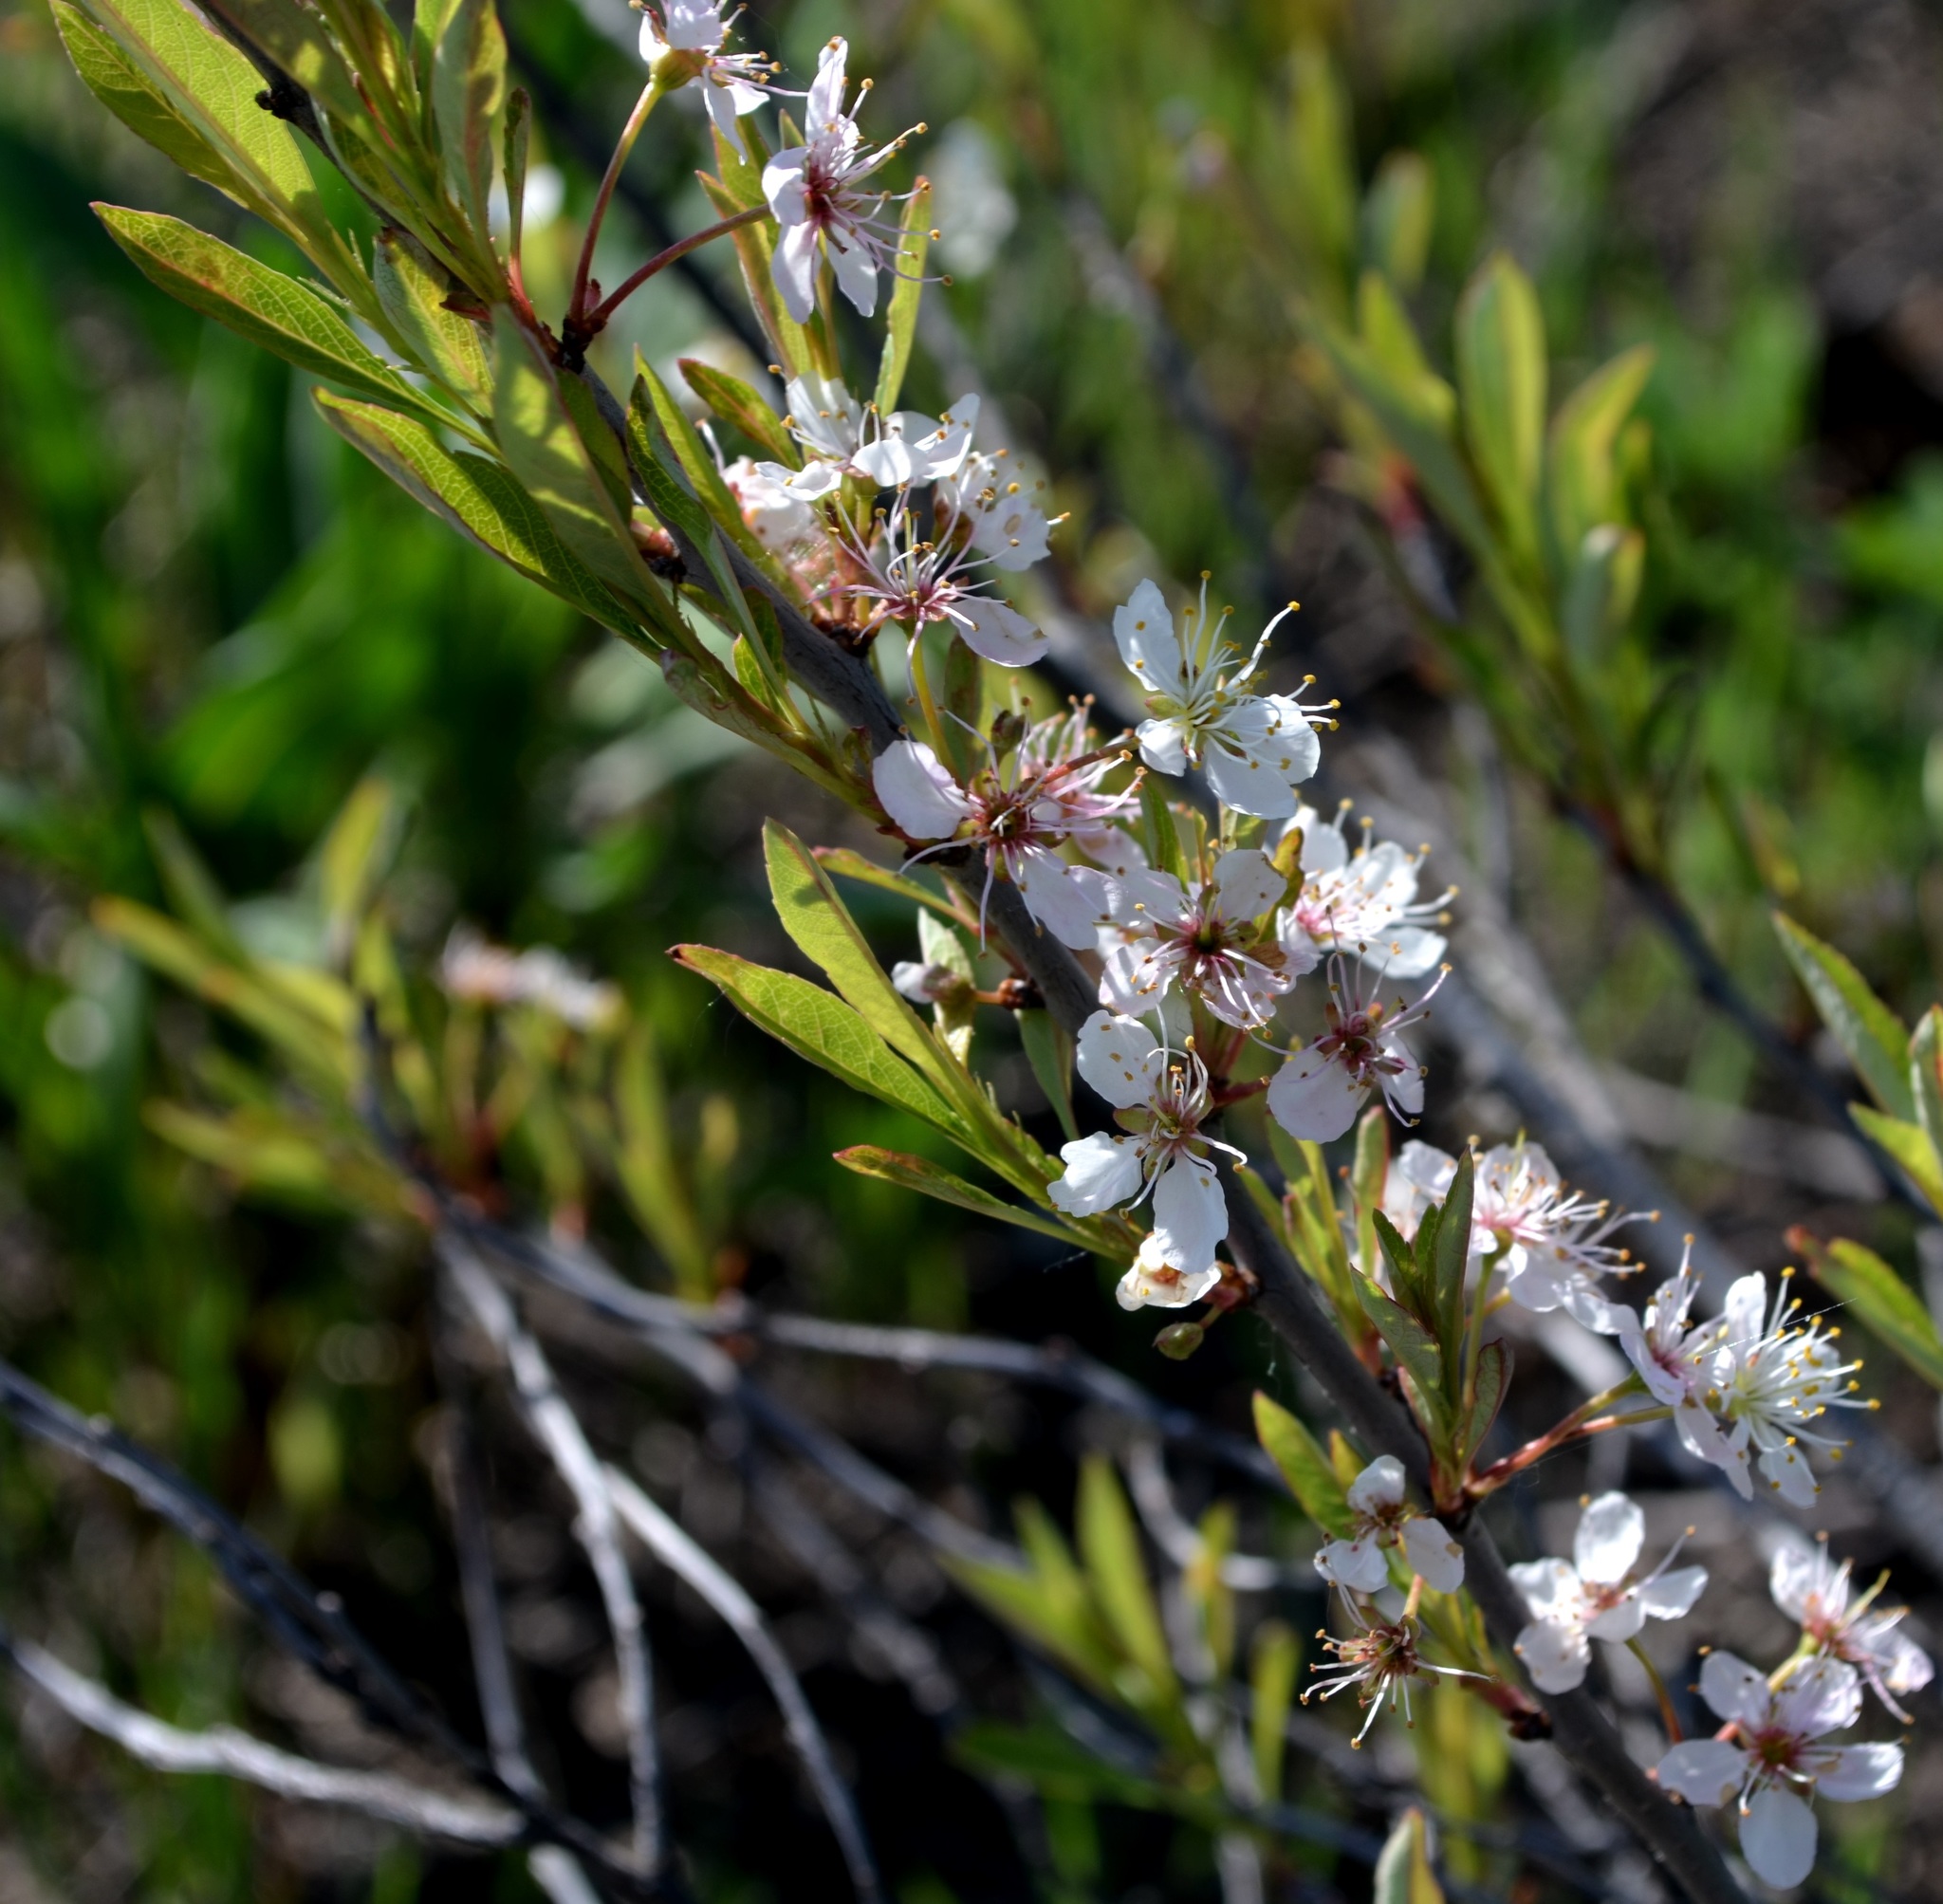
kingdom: Plantae
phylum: Tracheophyta
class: Magnoliopsida
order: Rosales
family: Rosaceae
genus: Prunus
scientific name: Prunus pumila
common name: Dwarf cherry
